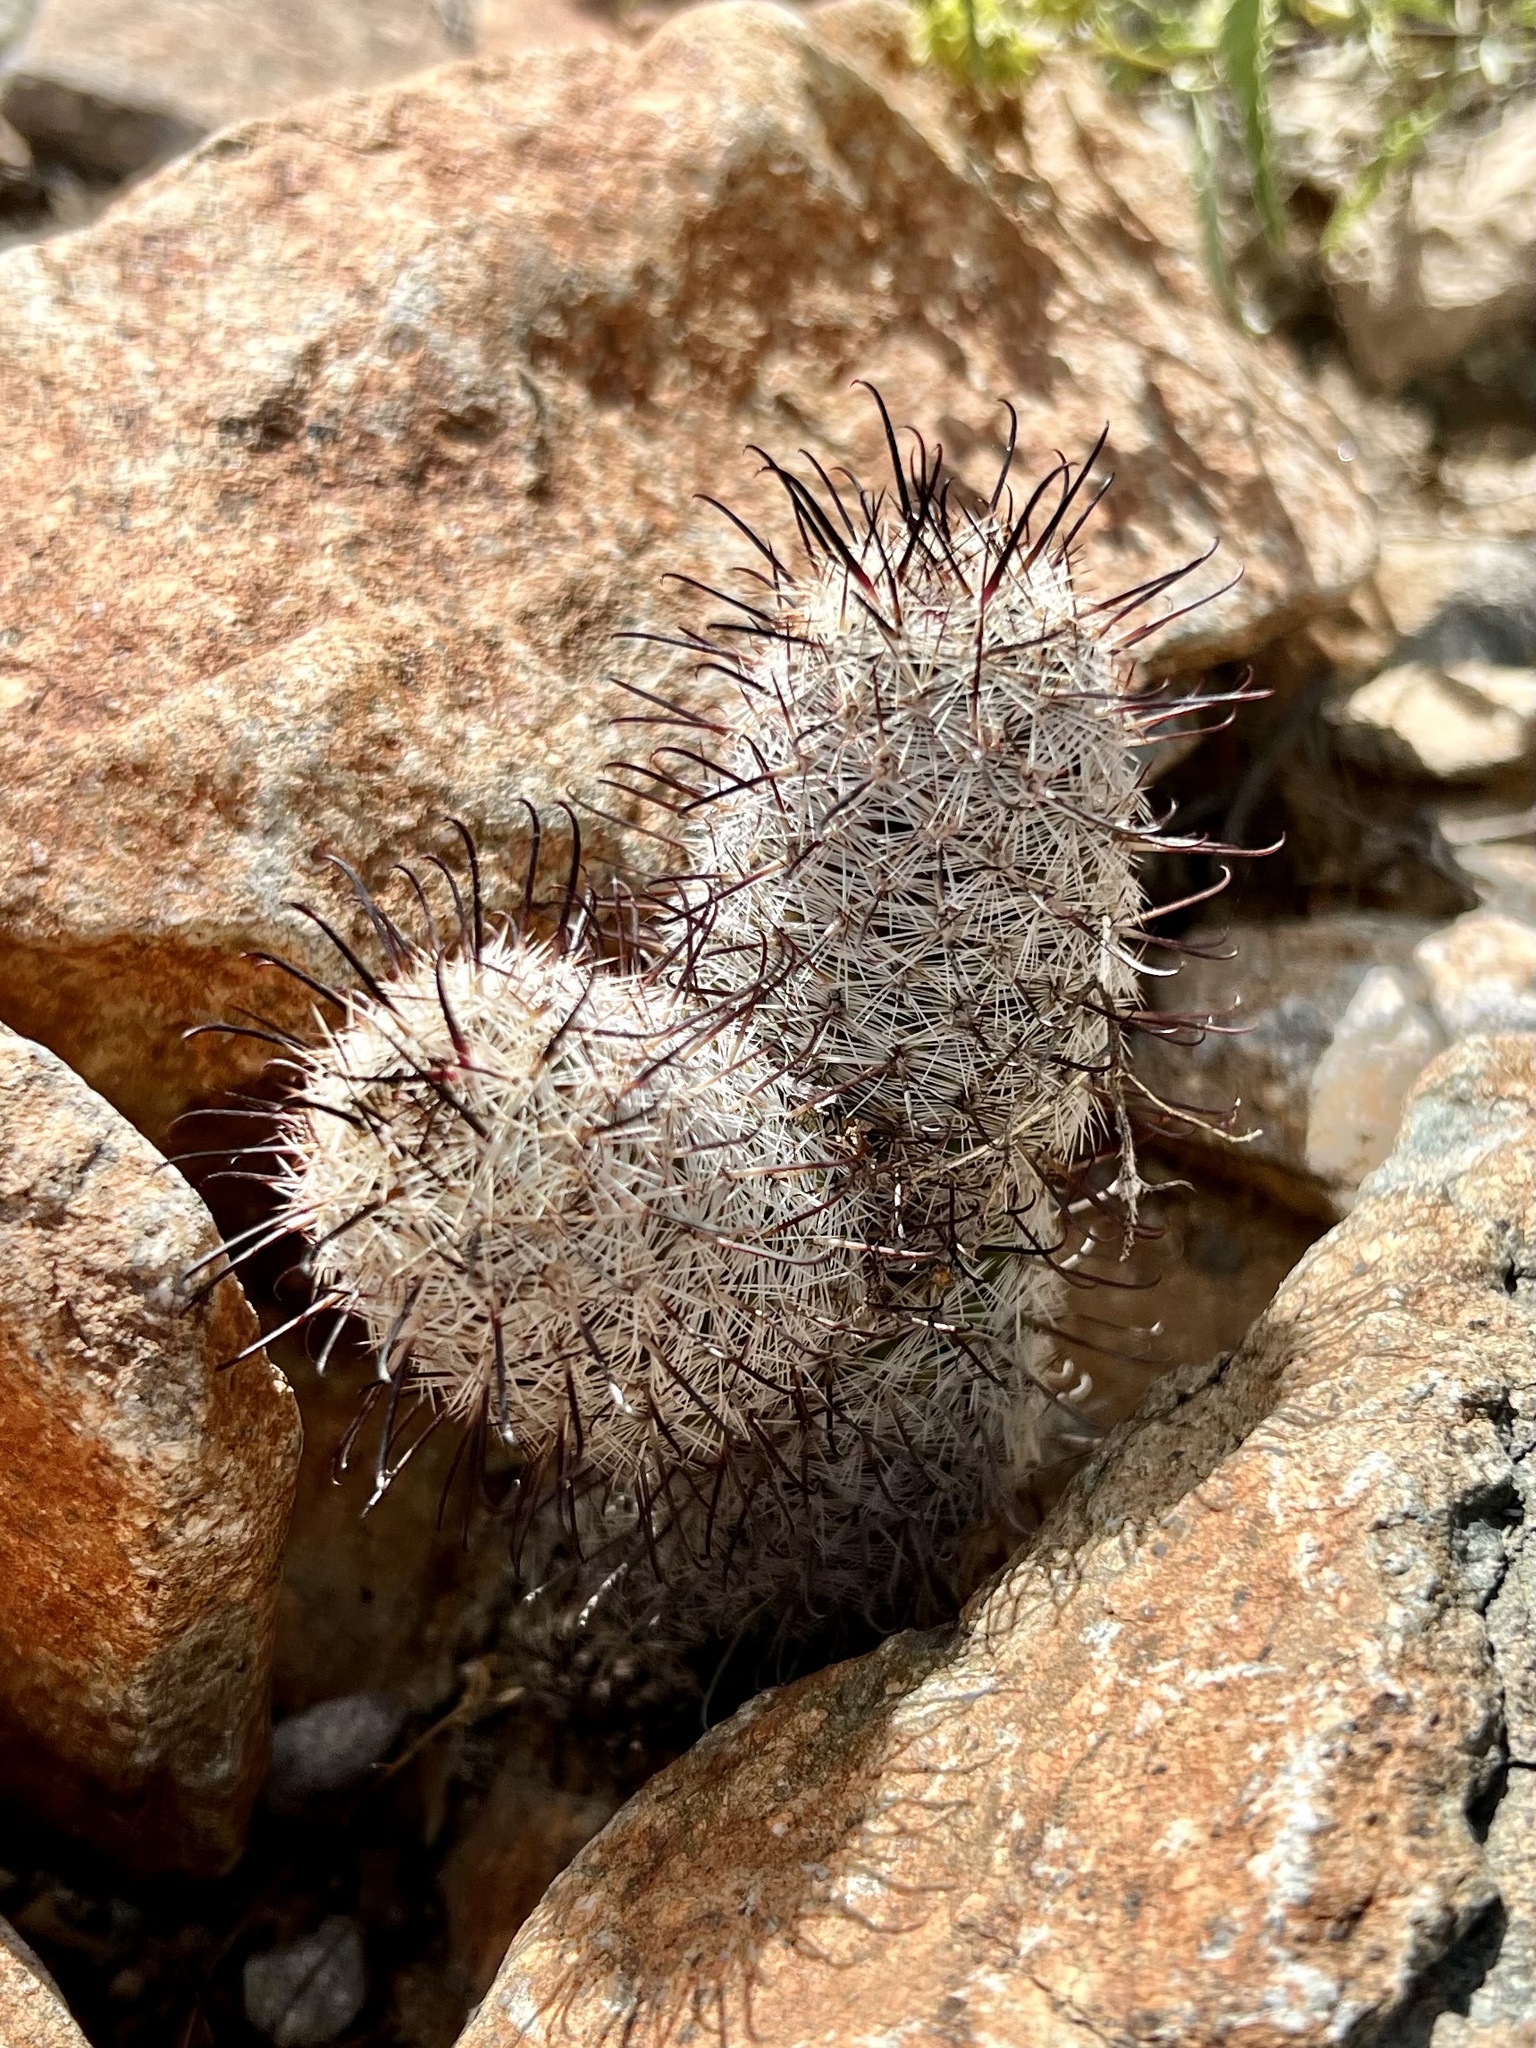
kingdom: Plantae
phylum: Tracheophyta
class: Magnoliopsida
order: Caryophyllales
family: Cactaceae
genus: Cochemiea
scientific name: Cochemiea grahamii
